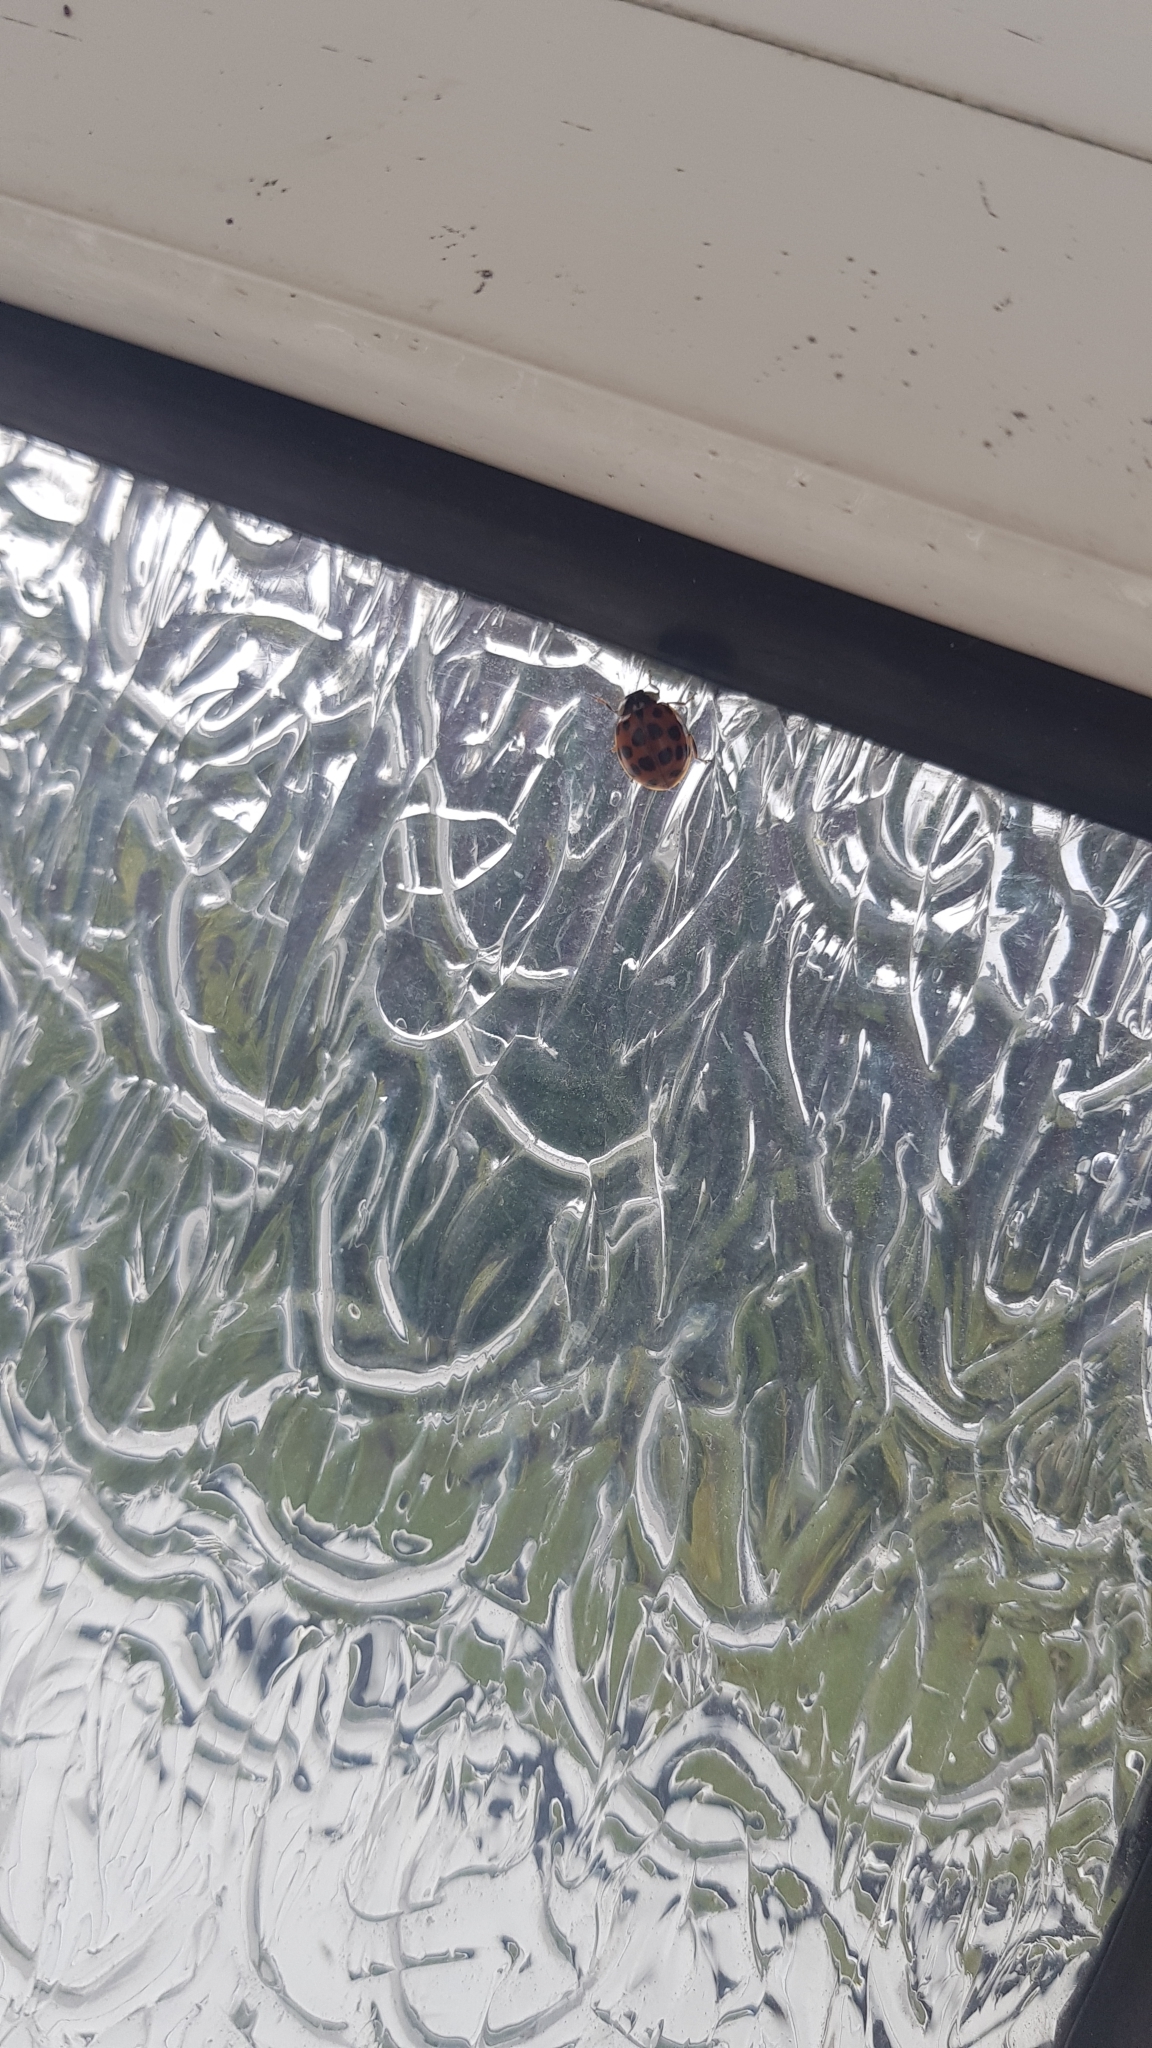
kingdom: Animalia
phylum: Arthropoda
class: Insecta
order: Coleoptera
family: Coccinellidae
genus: Harmonia
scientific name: Harmonia axyridis
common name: Harlequin ladybird
